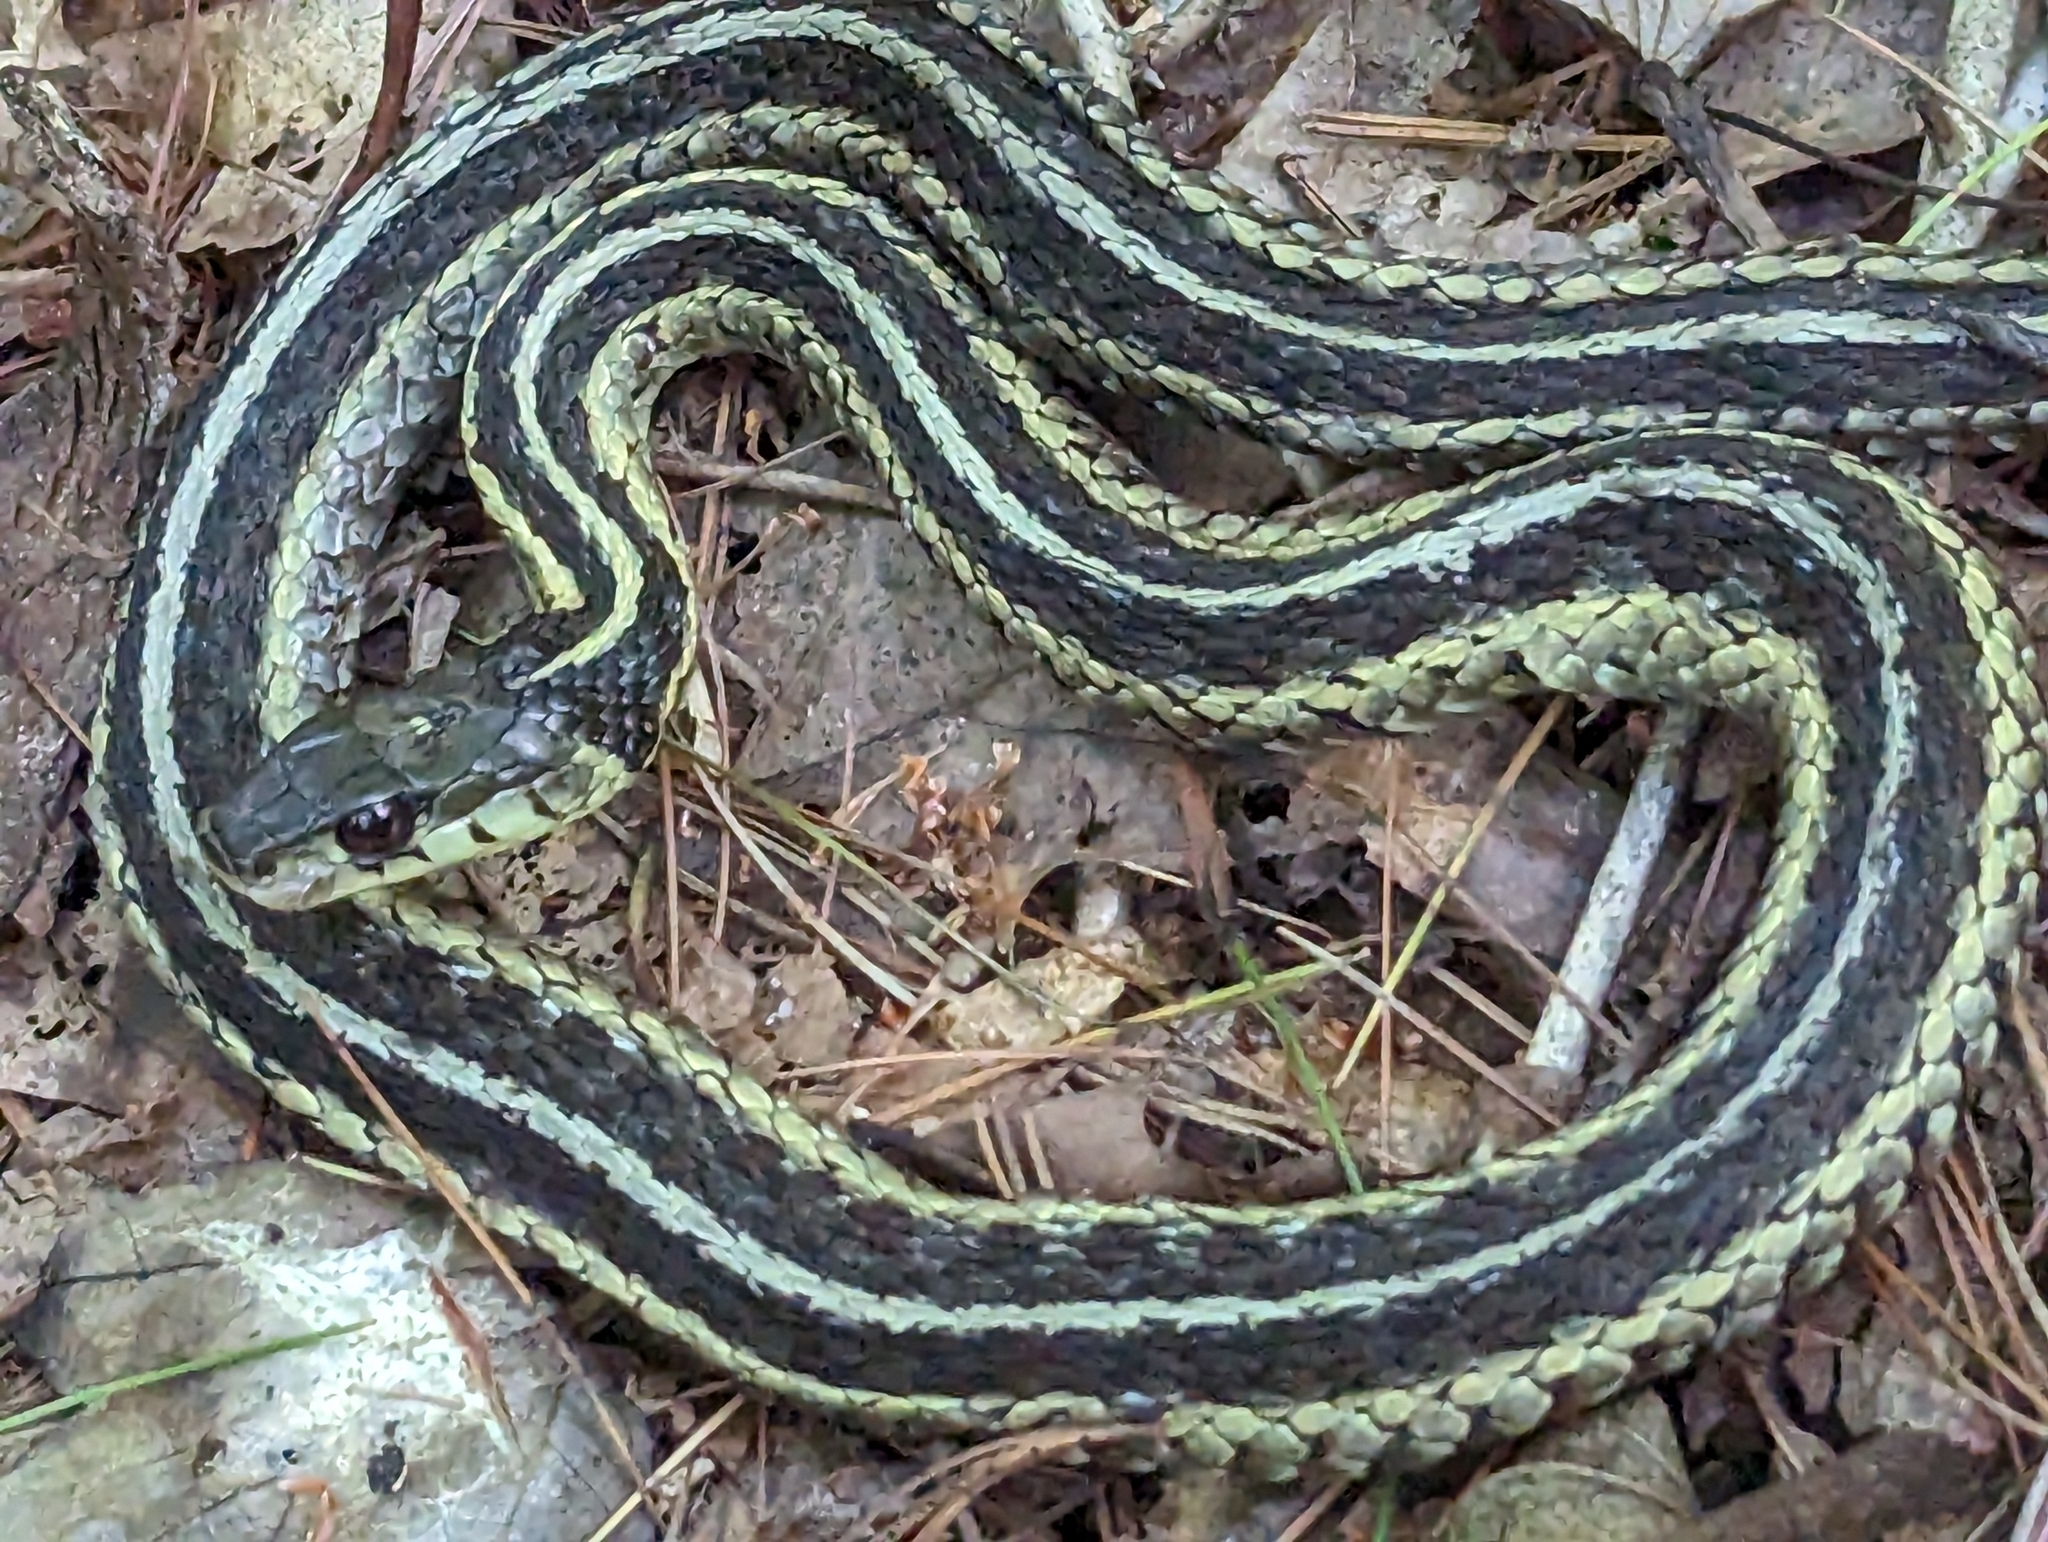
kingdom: Animalia
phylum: Chordata
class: Squamata
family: Colubridae
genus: Thamnophis
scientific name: Thamnophis sirtalis
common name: Common garter snake
